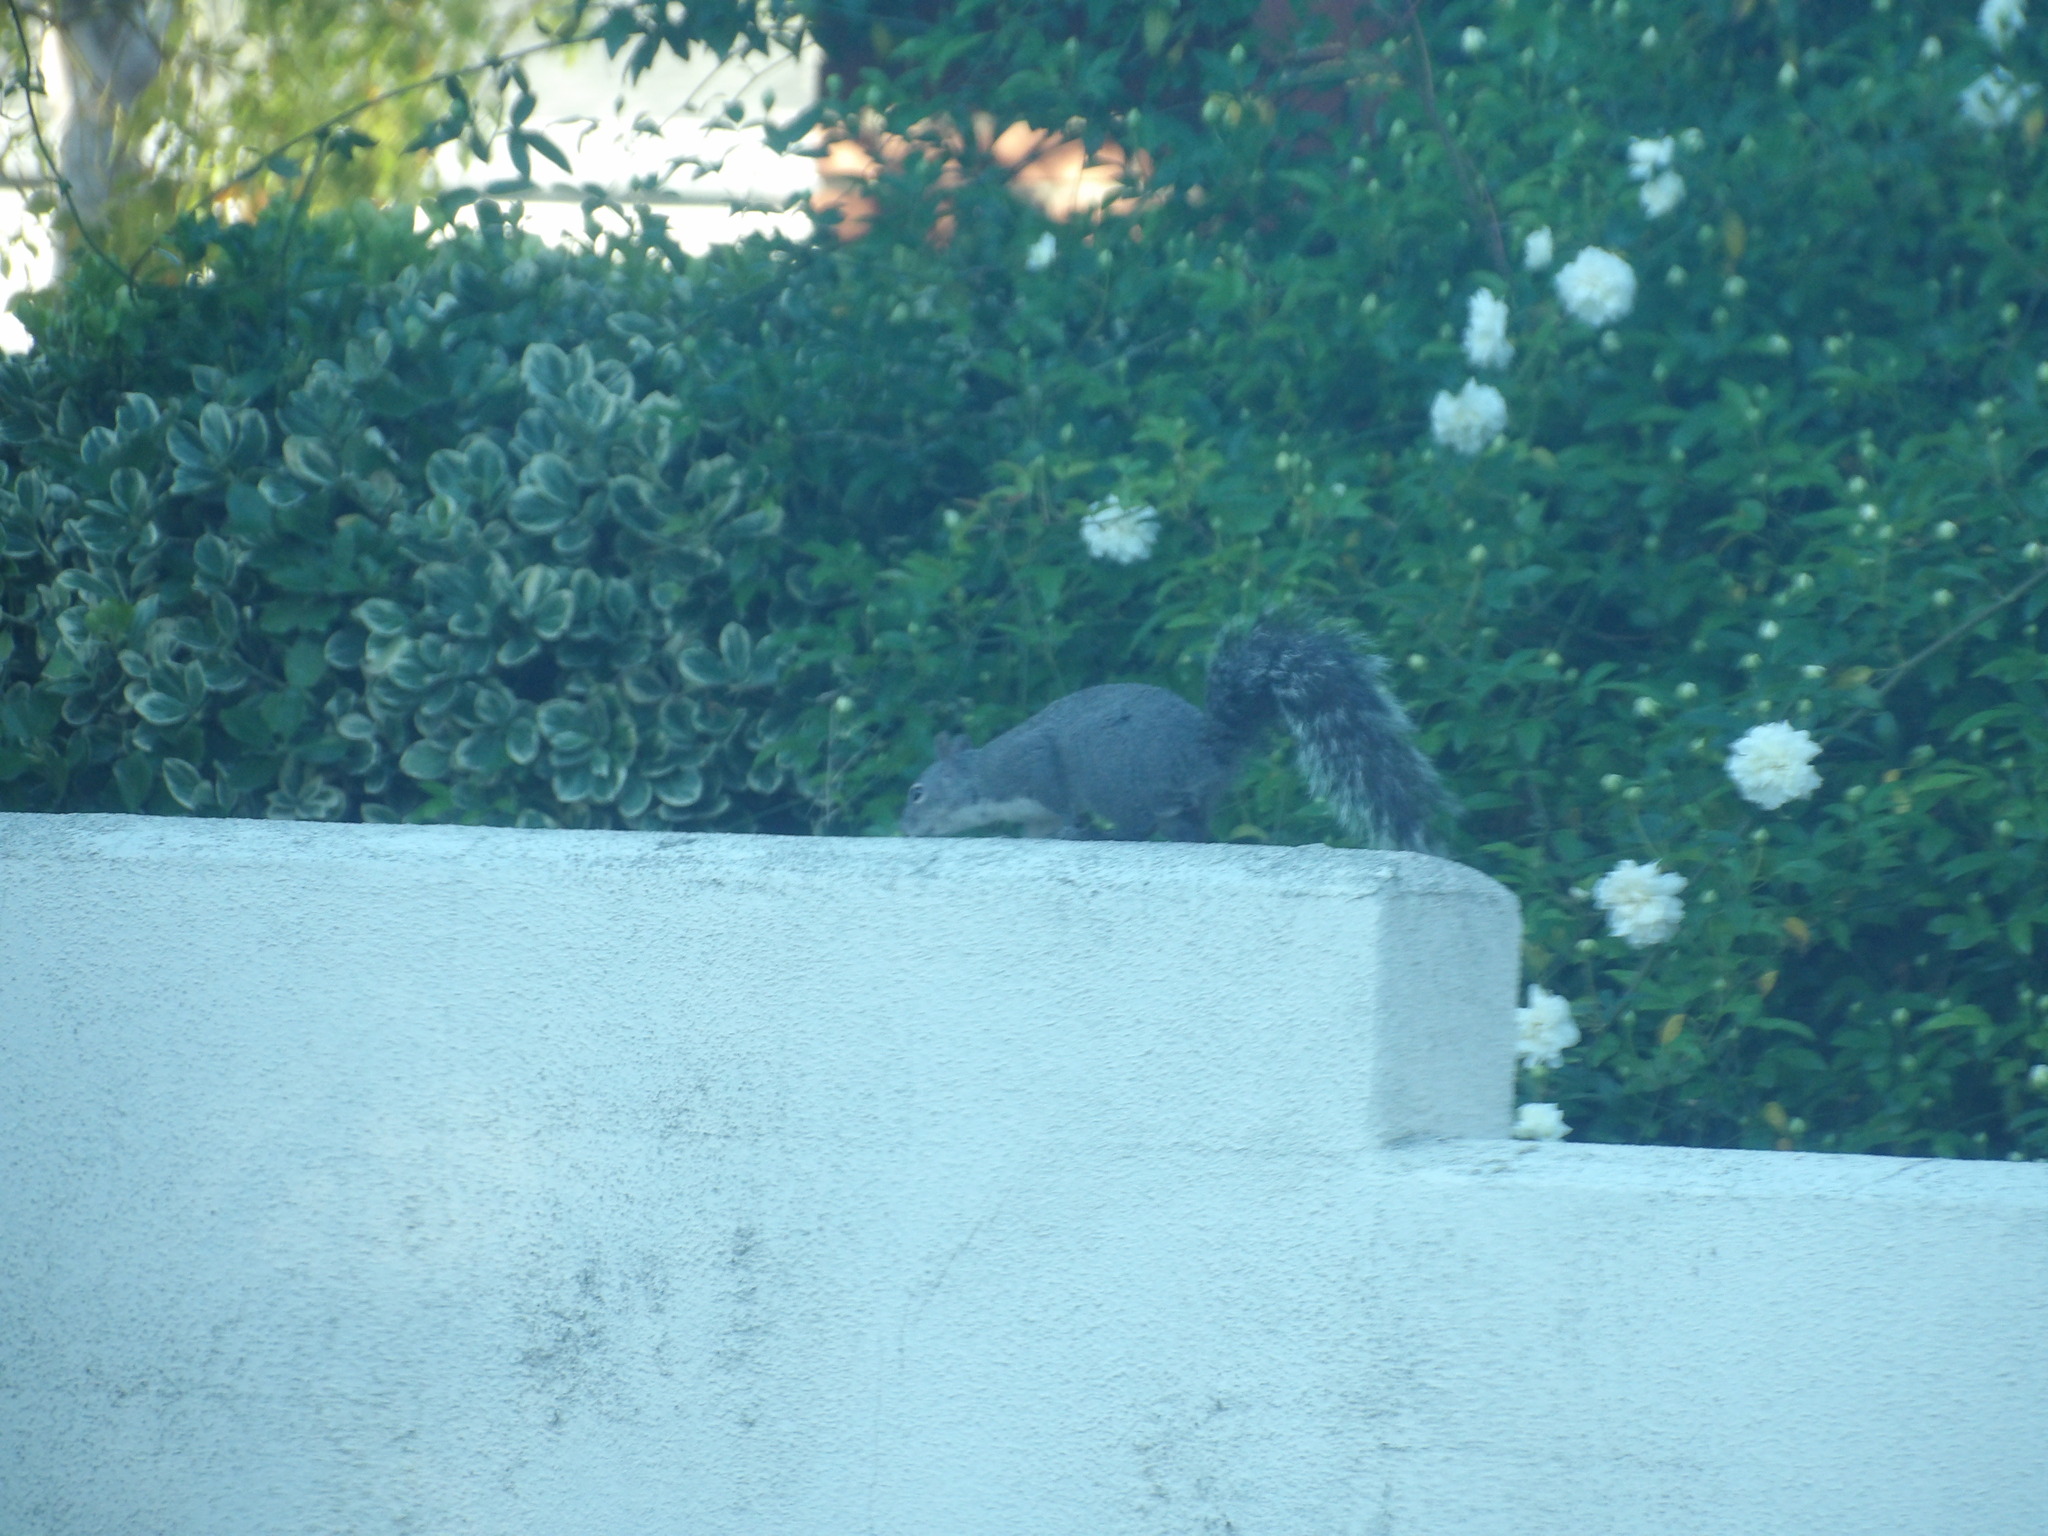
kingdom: Animalia
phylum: Chordata
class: Mammalia
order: Rodentia
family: Sciuridae
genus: Sciurus
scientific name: Sciurus griseus
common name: Western gray squirrel
